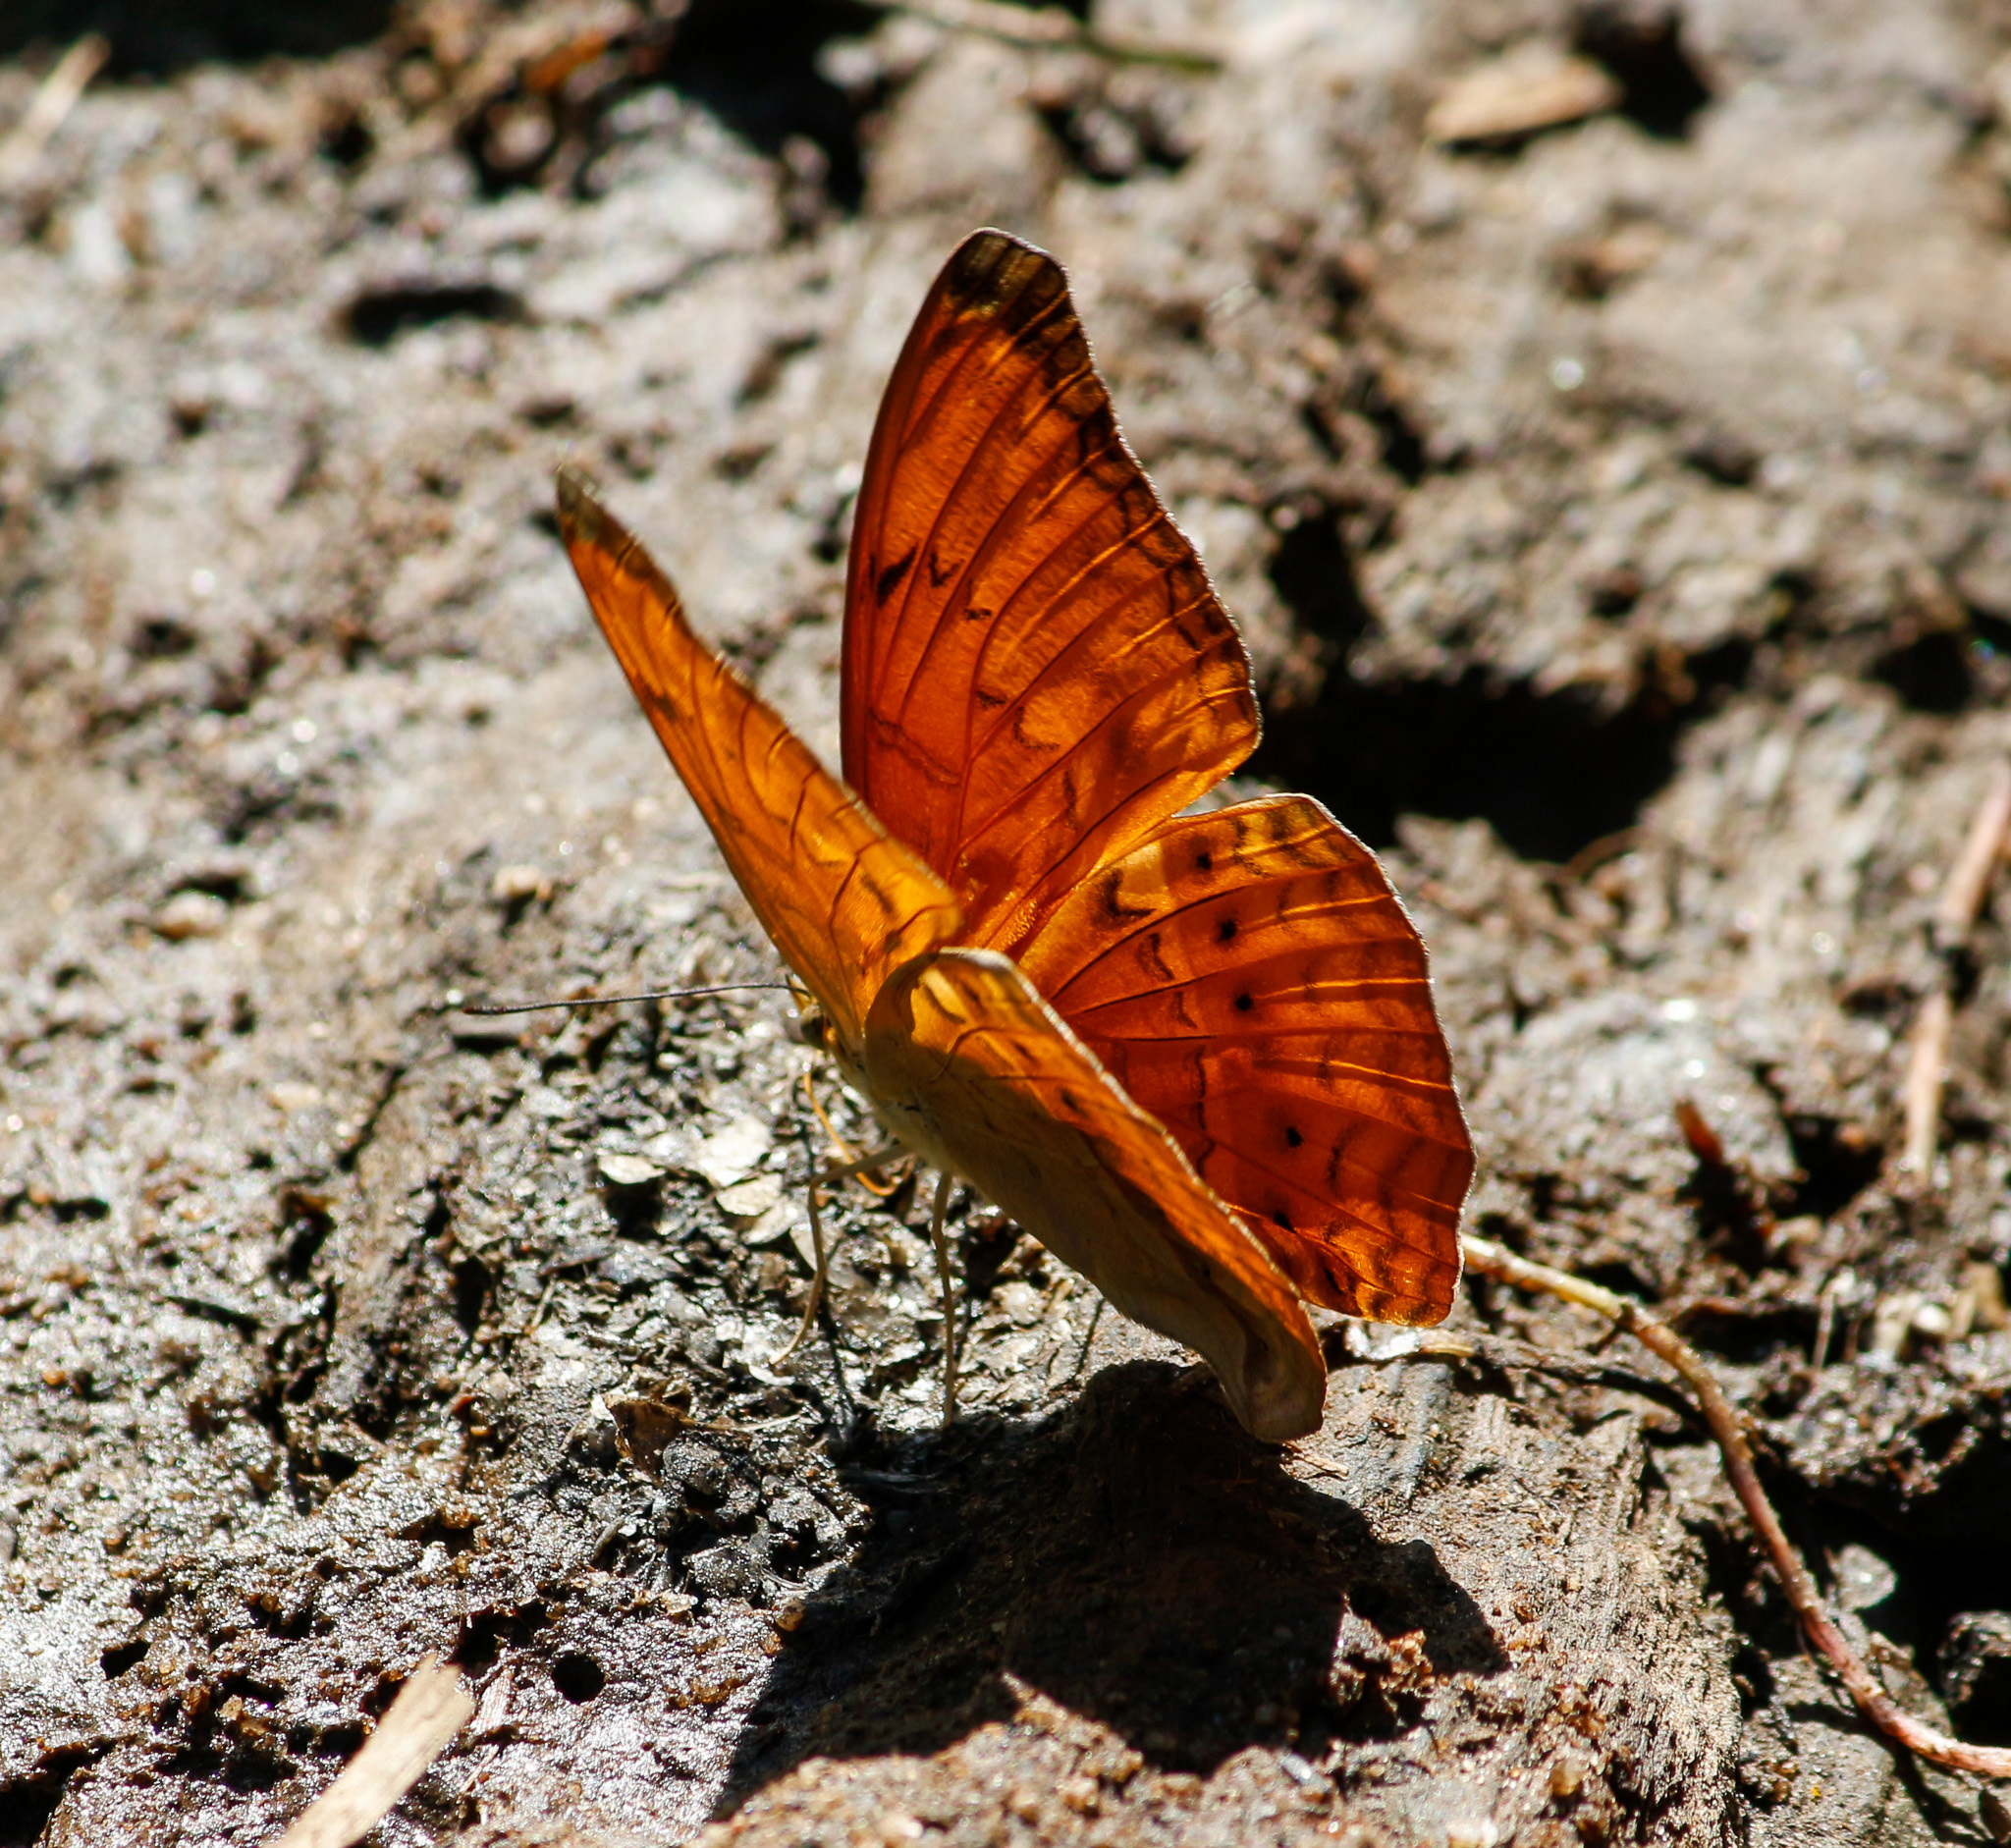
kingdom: Animalia
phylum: Arthropoda
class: Insecta
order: Lepidoptera
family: Nymphalidae
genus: Cirrochroa
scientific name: Cirrochroa aoris
